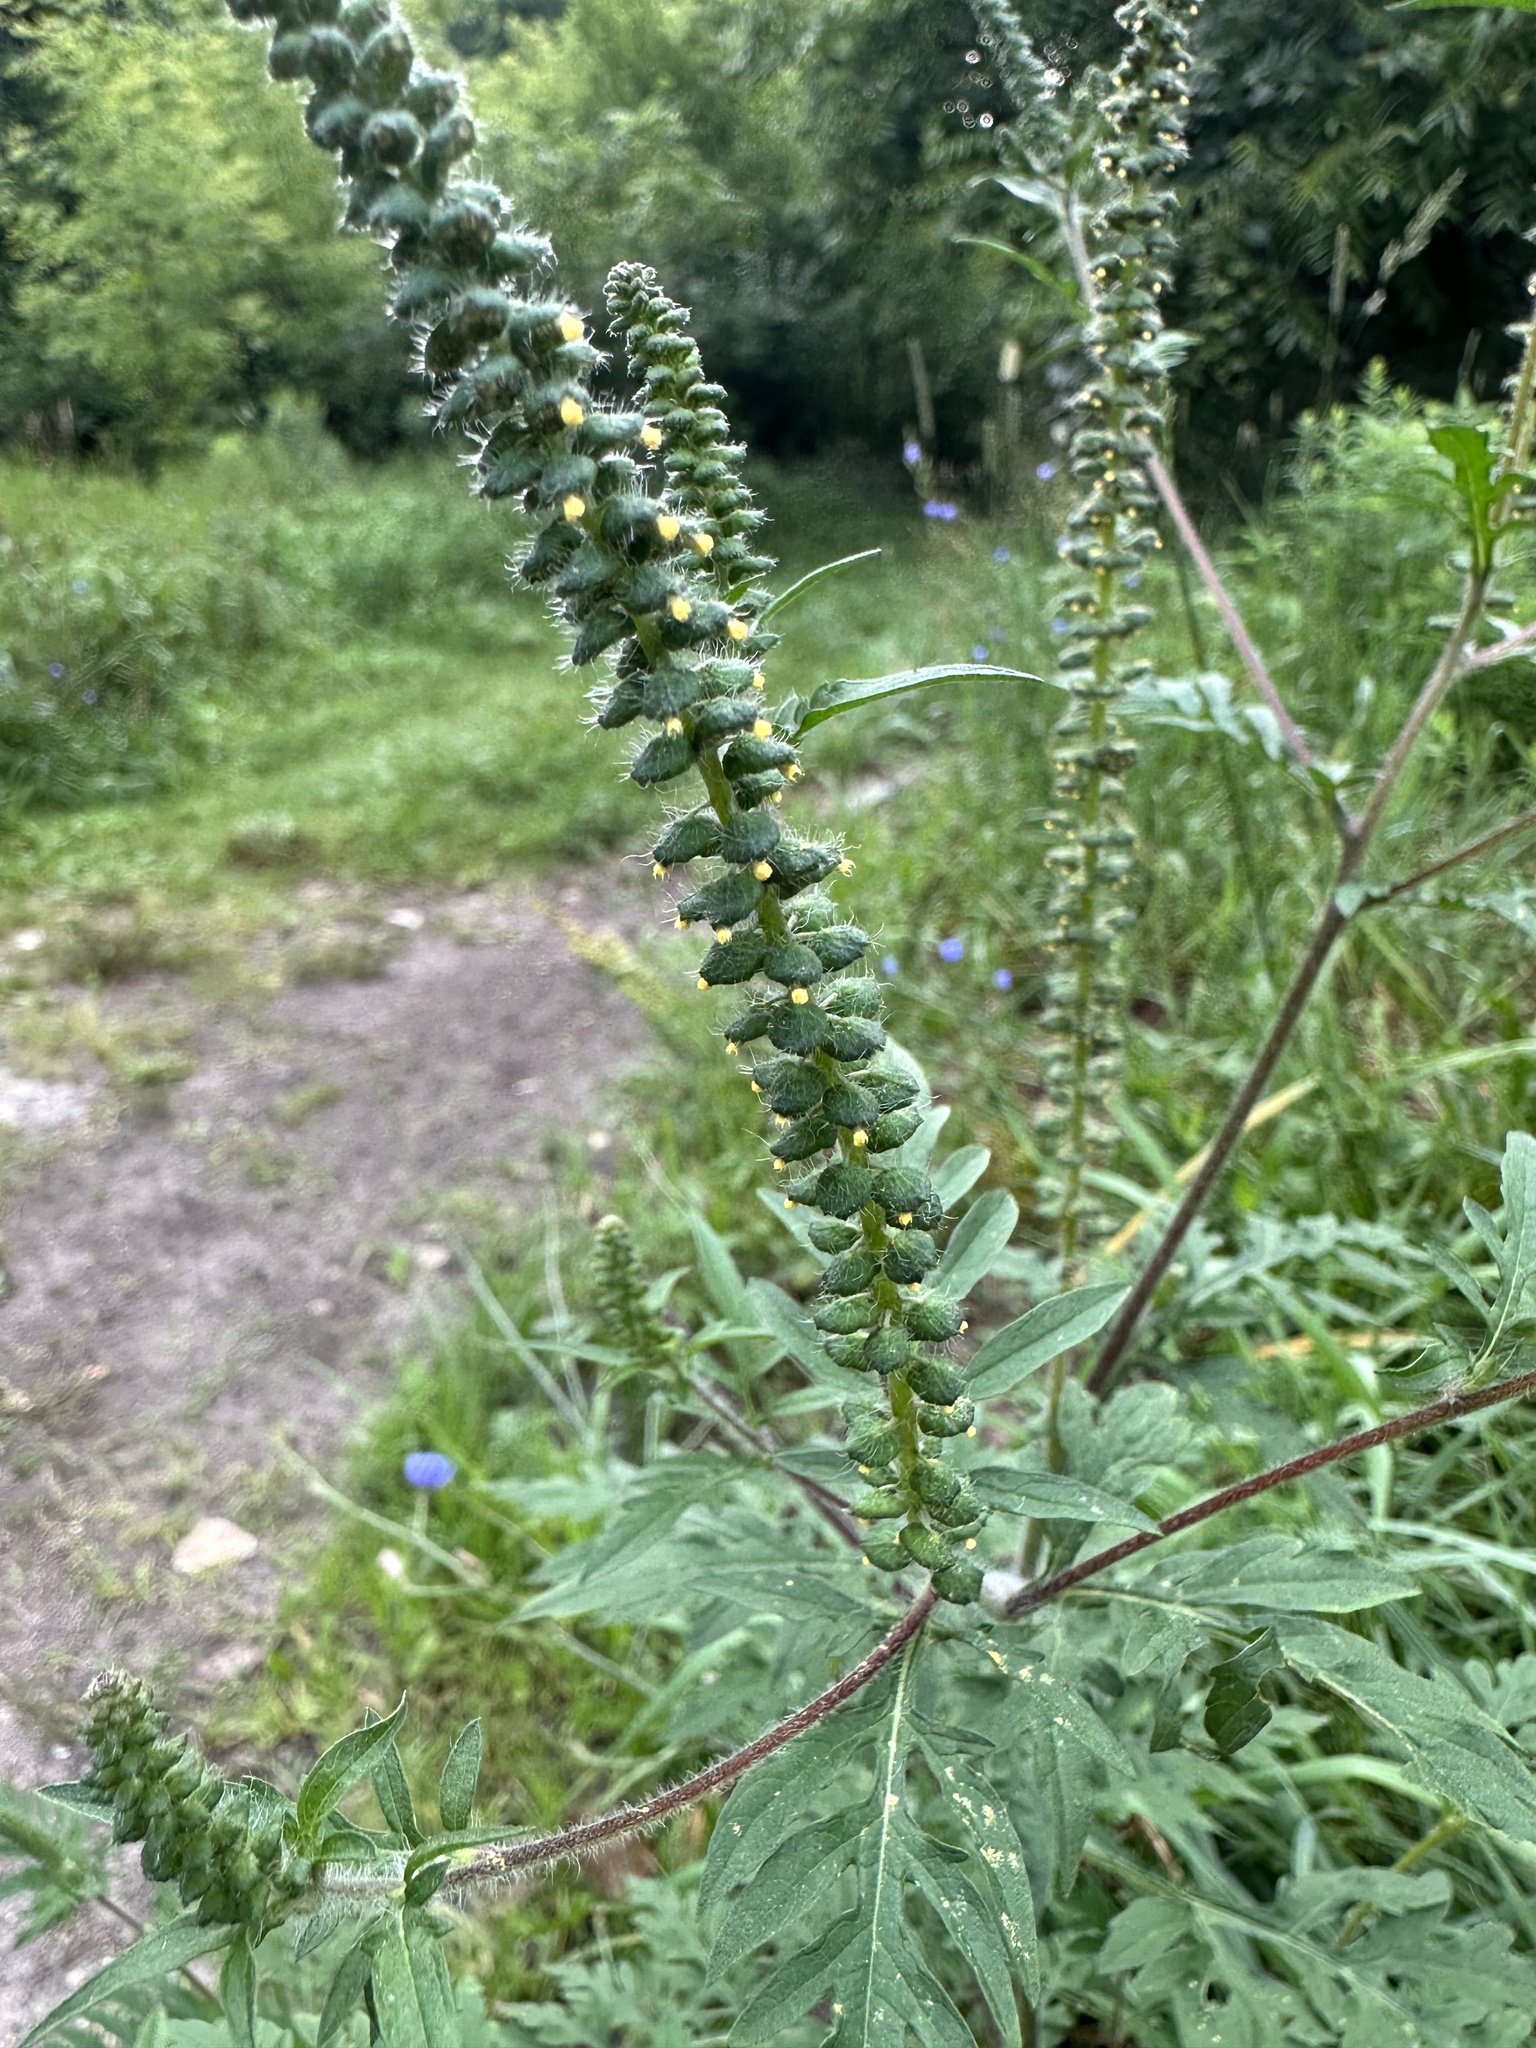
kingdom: Plantae
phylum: Tracheophyta
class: Magnoliopsida
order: Asterales
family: Asteraceae
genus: Ambrosia
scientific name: Ambrosia artemisiifolia
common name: Annual ragweed
